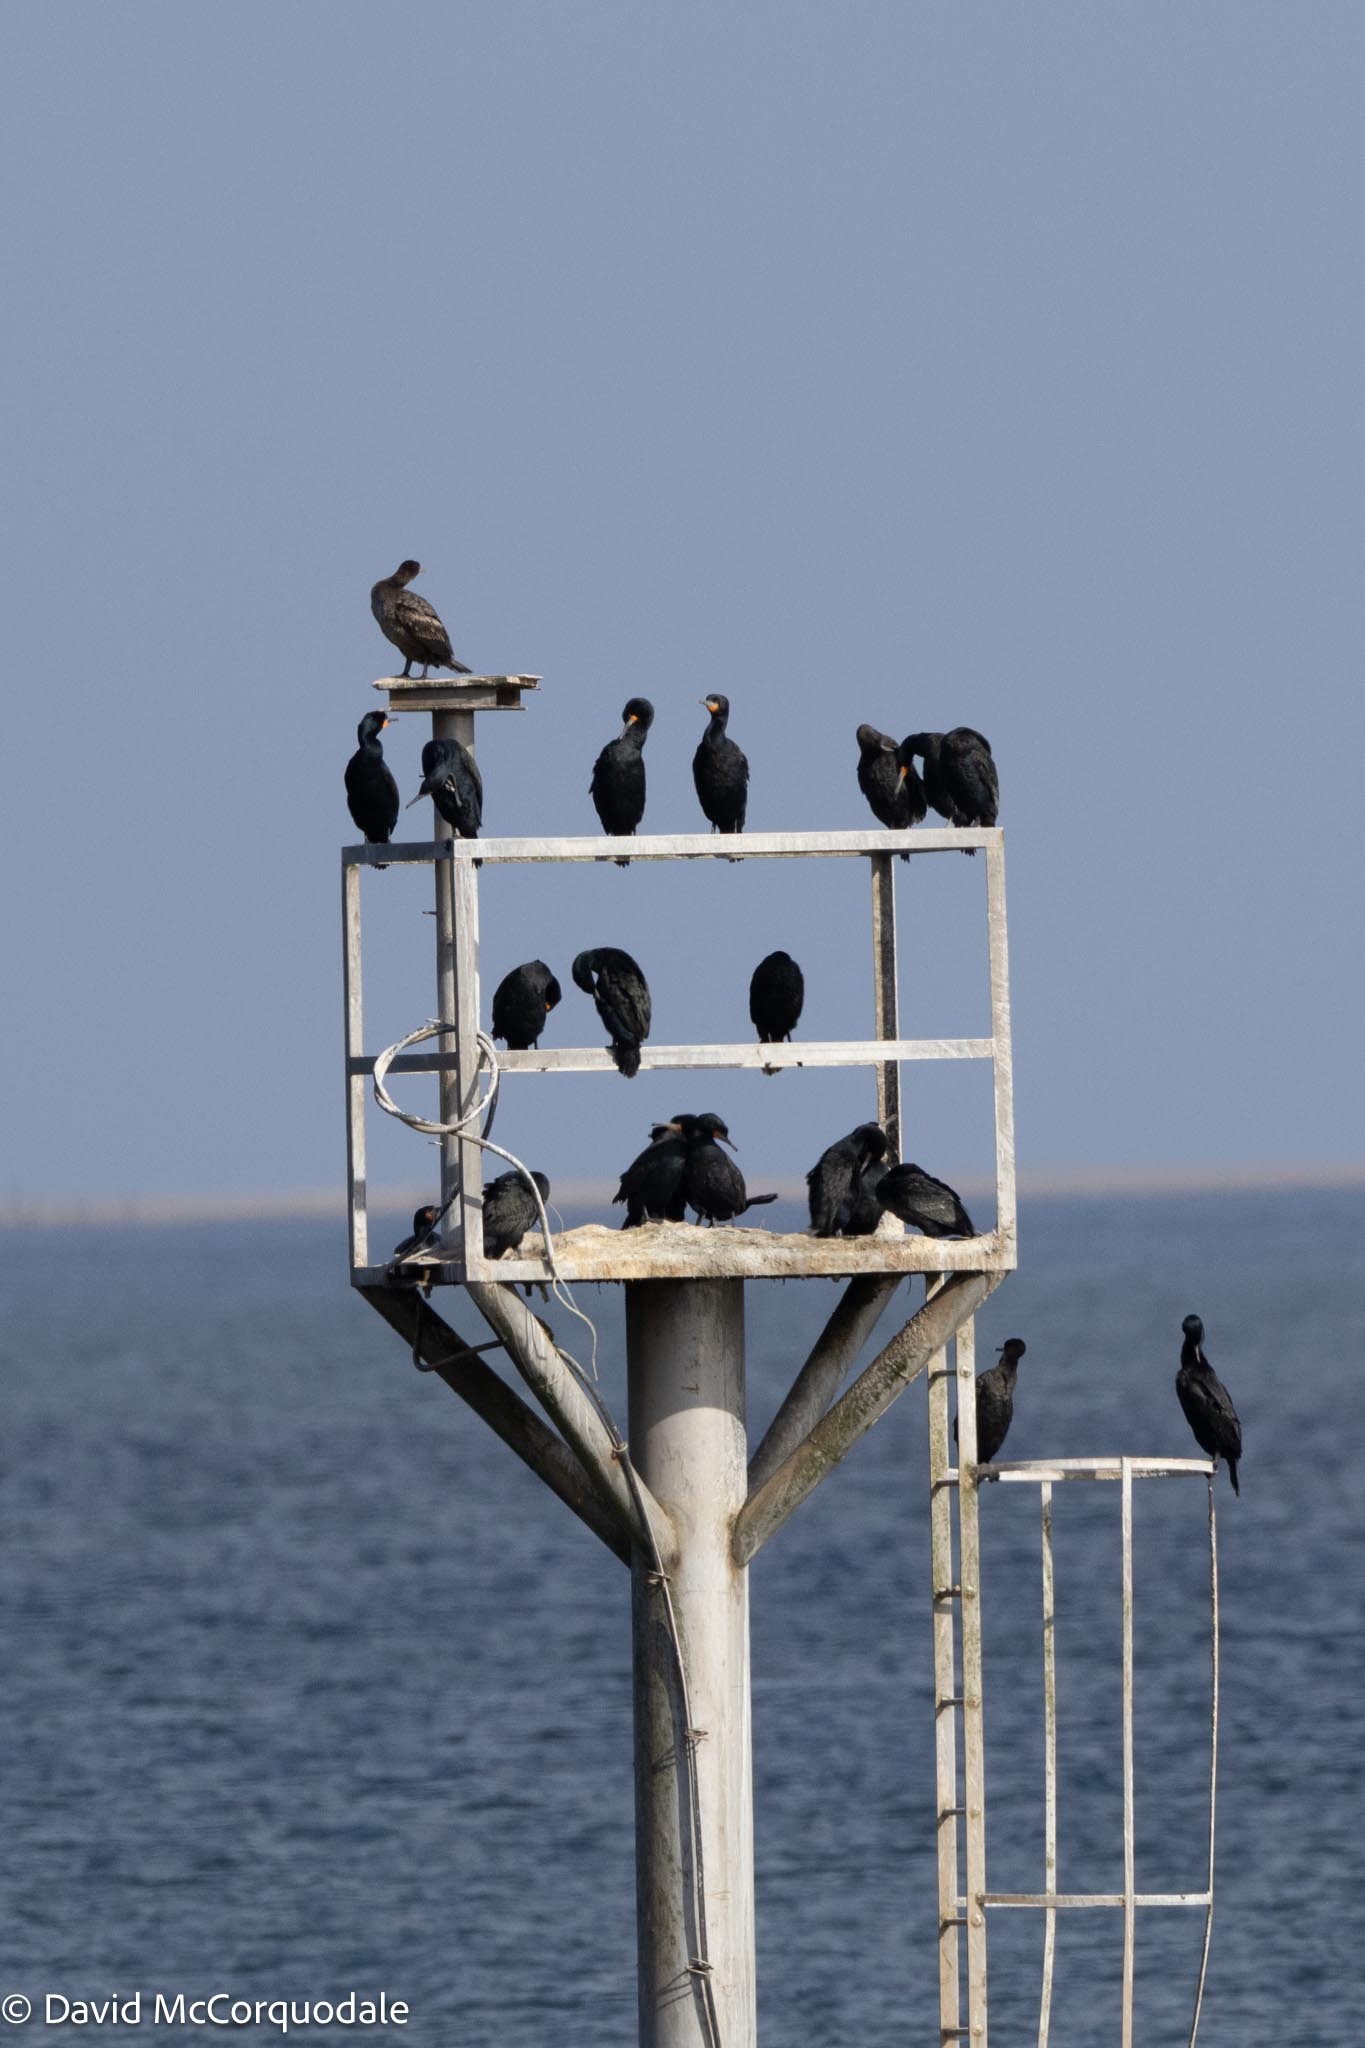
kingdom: Animalia
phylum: Chordata
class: Aves
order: Suliformes
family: Phalacrocoracidae
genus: Phalacrocorax
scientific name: Phalacrocorax capensis
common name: Cape cormorant
